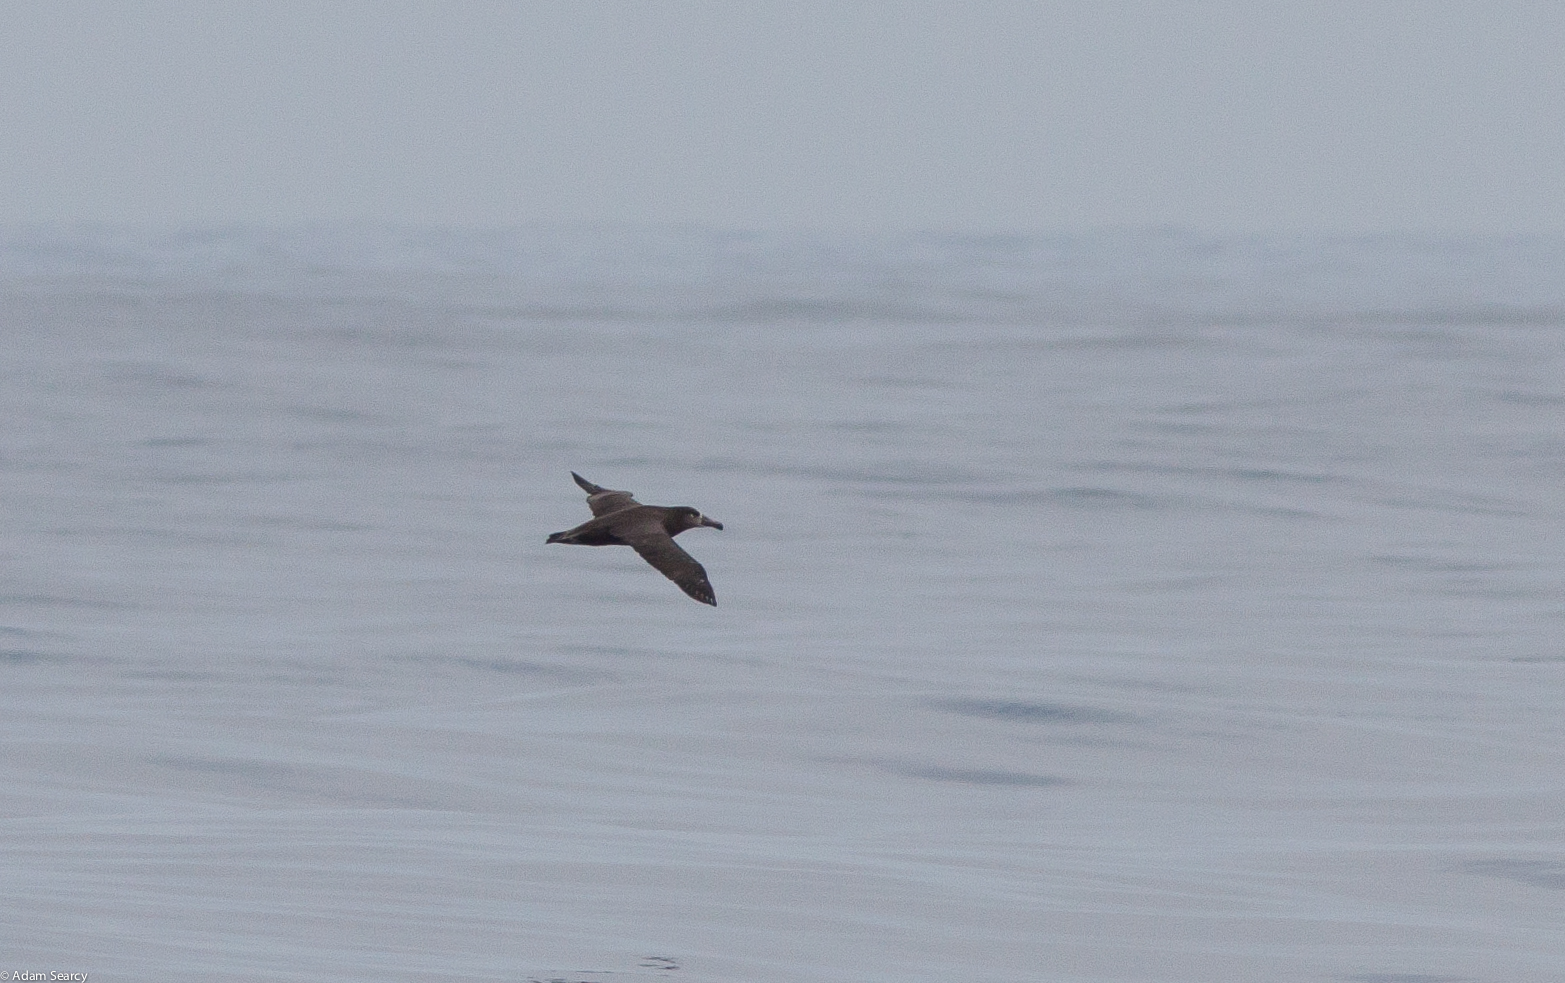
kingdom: Animalia
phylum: Chordata
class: Aves
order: Procellariiformes
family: Diomedeidae
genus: Phoebastria
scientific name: Phoebastria nigripes
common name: Black-footed albatross
